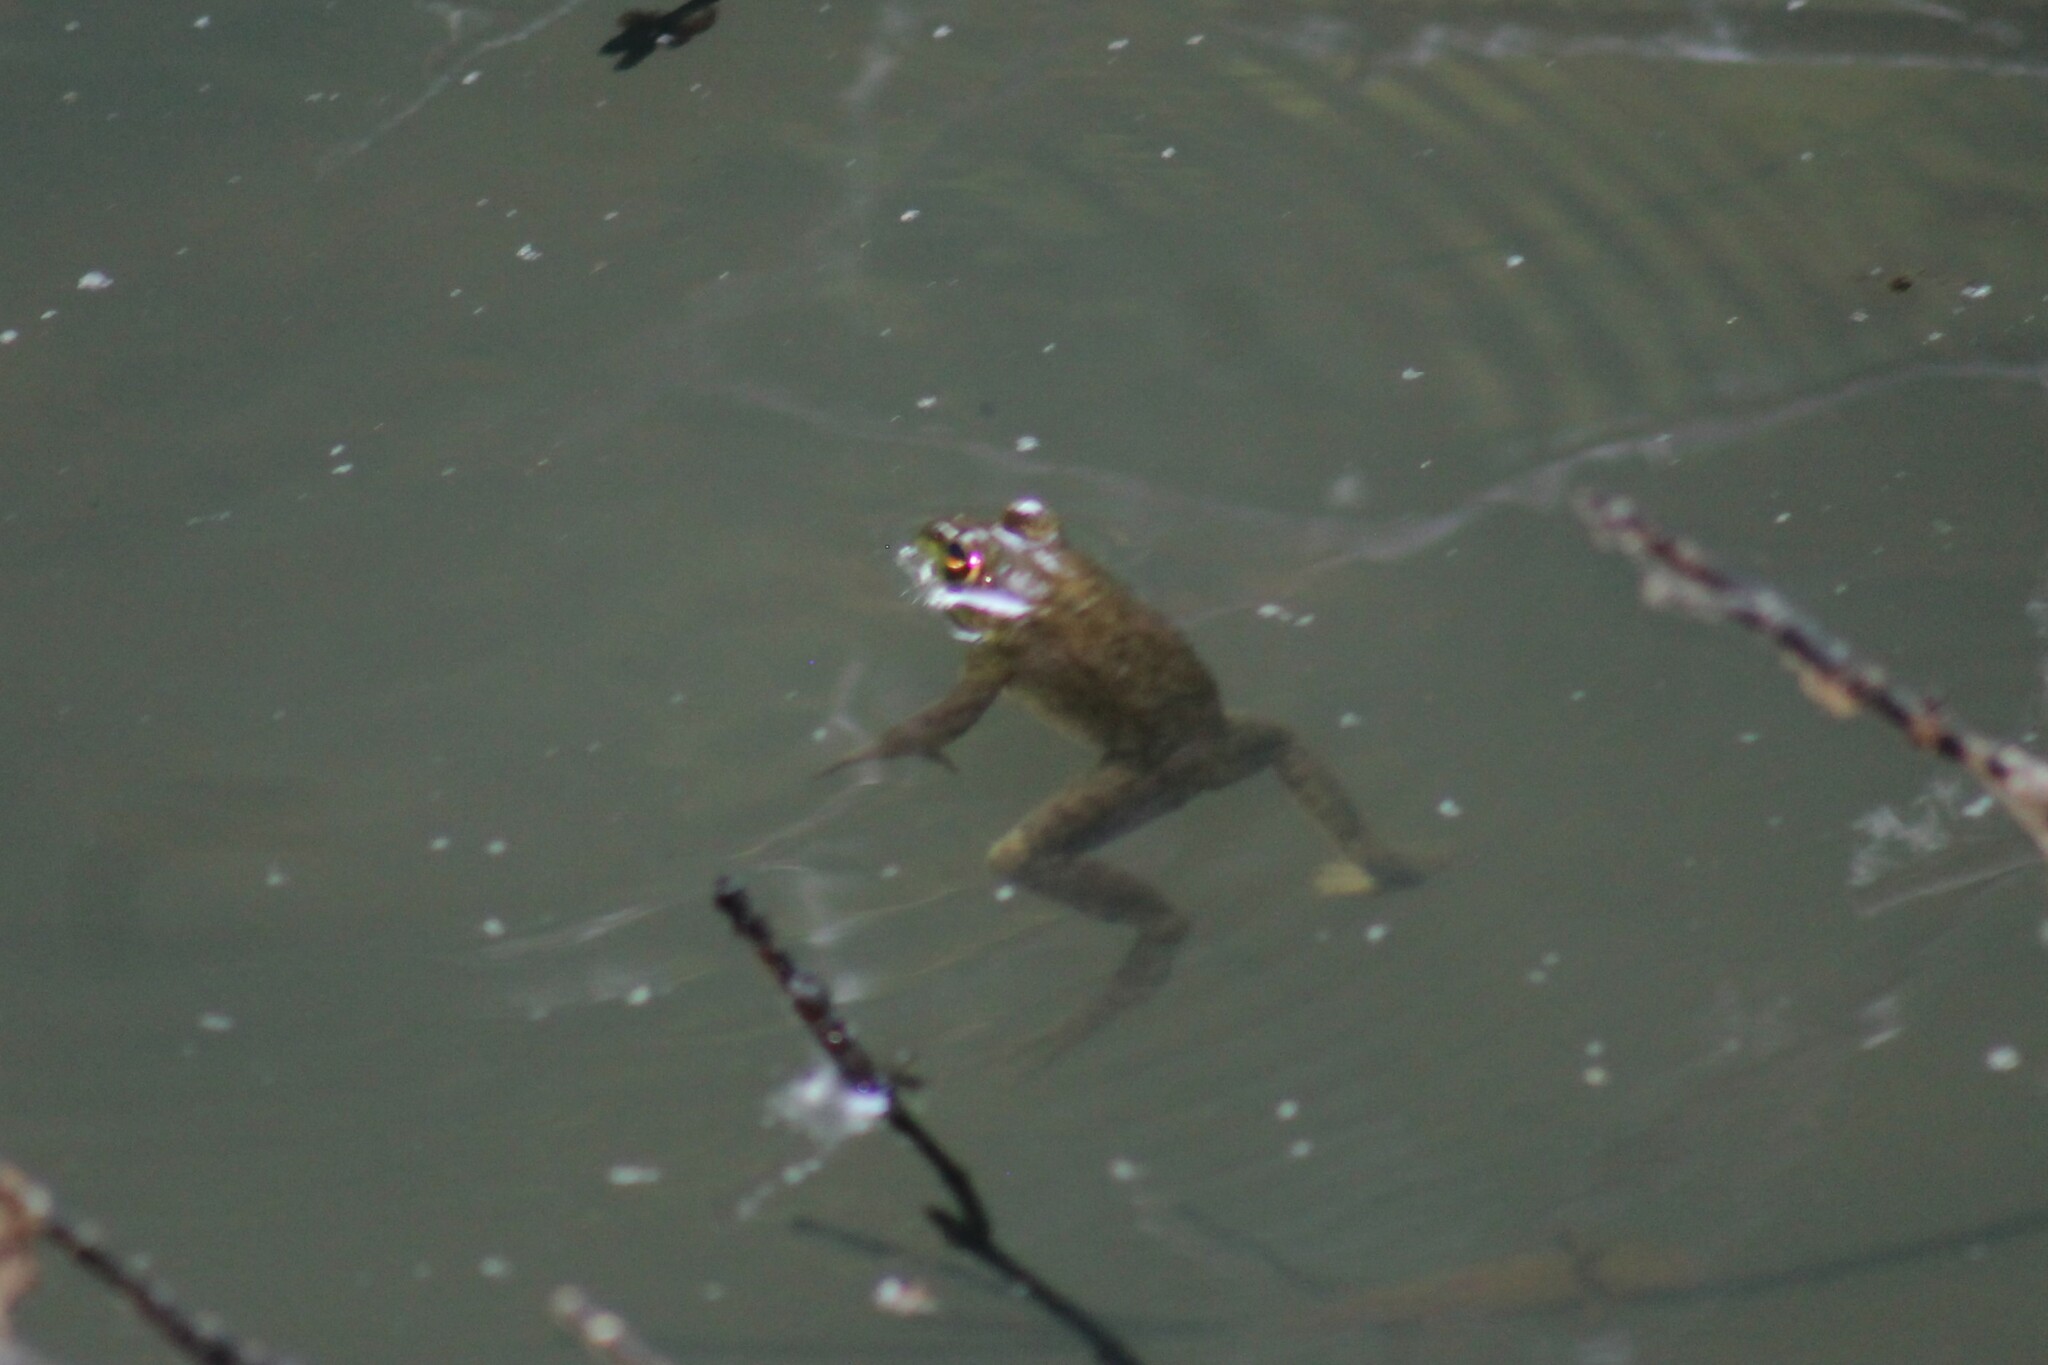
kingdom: Animalia
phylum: Chordata
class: Amphibia
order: Anura
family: Ranidae
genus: Lithobates
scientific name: Lithobates catesbeianus
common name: American bullfrog
